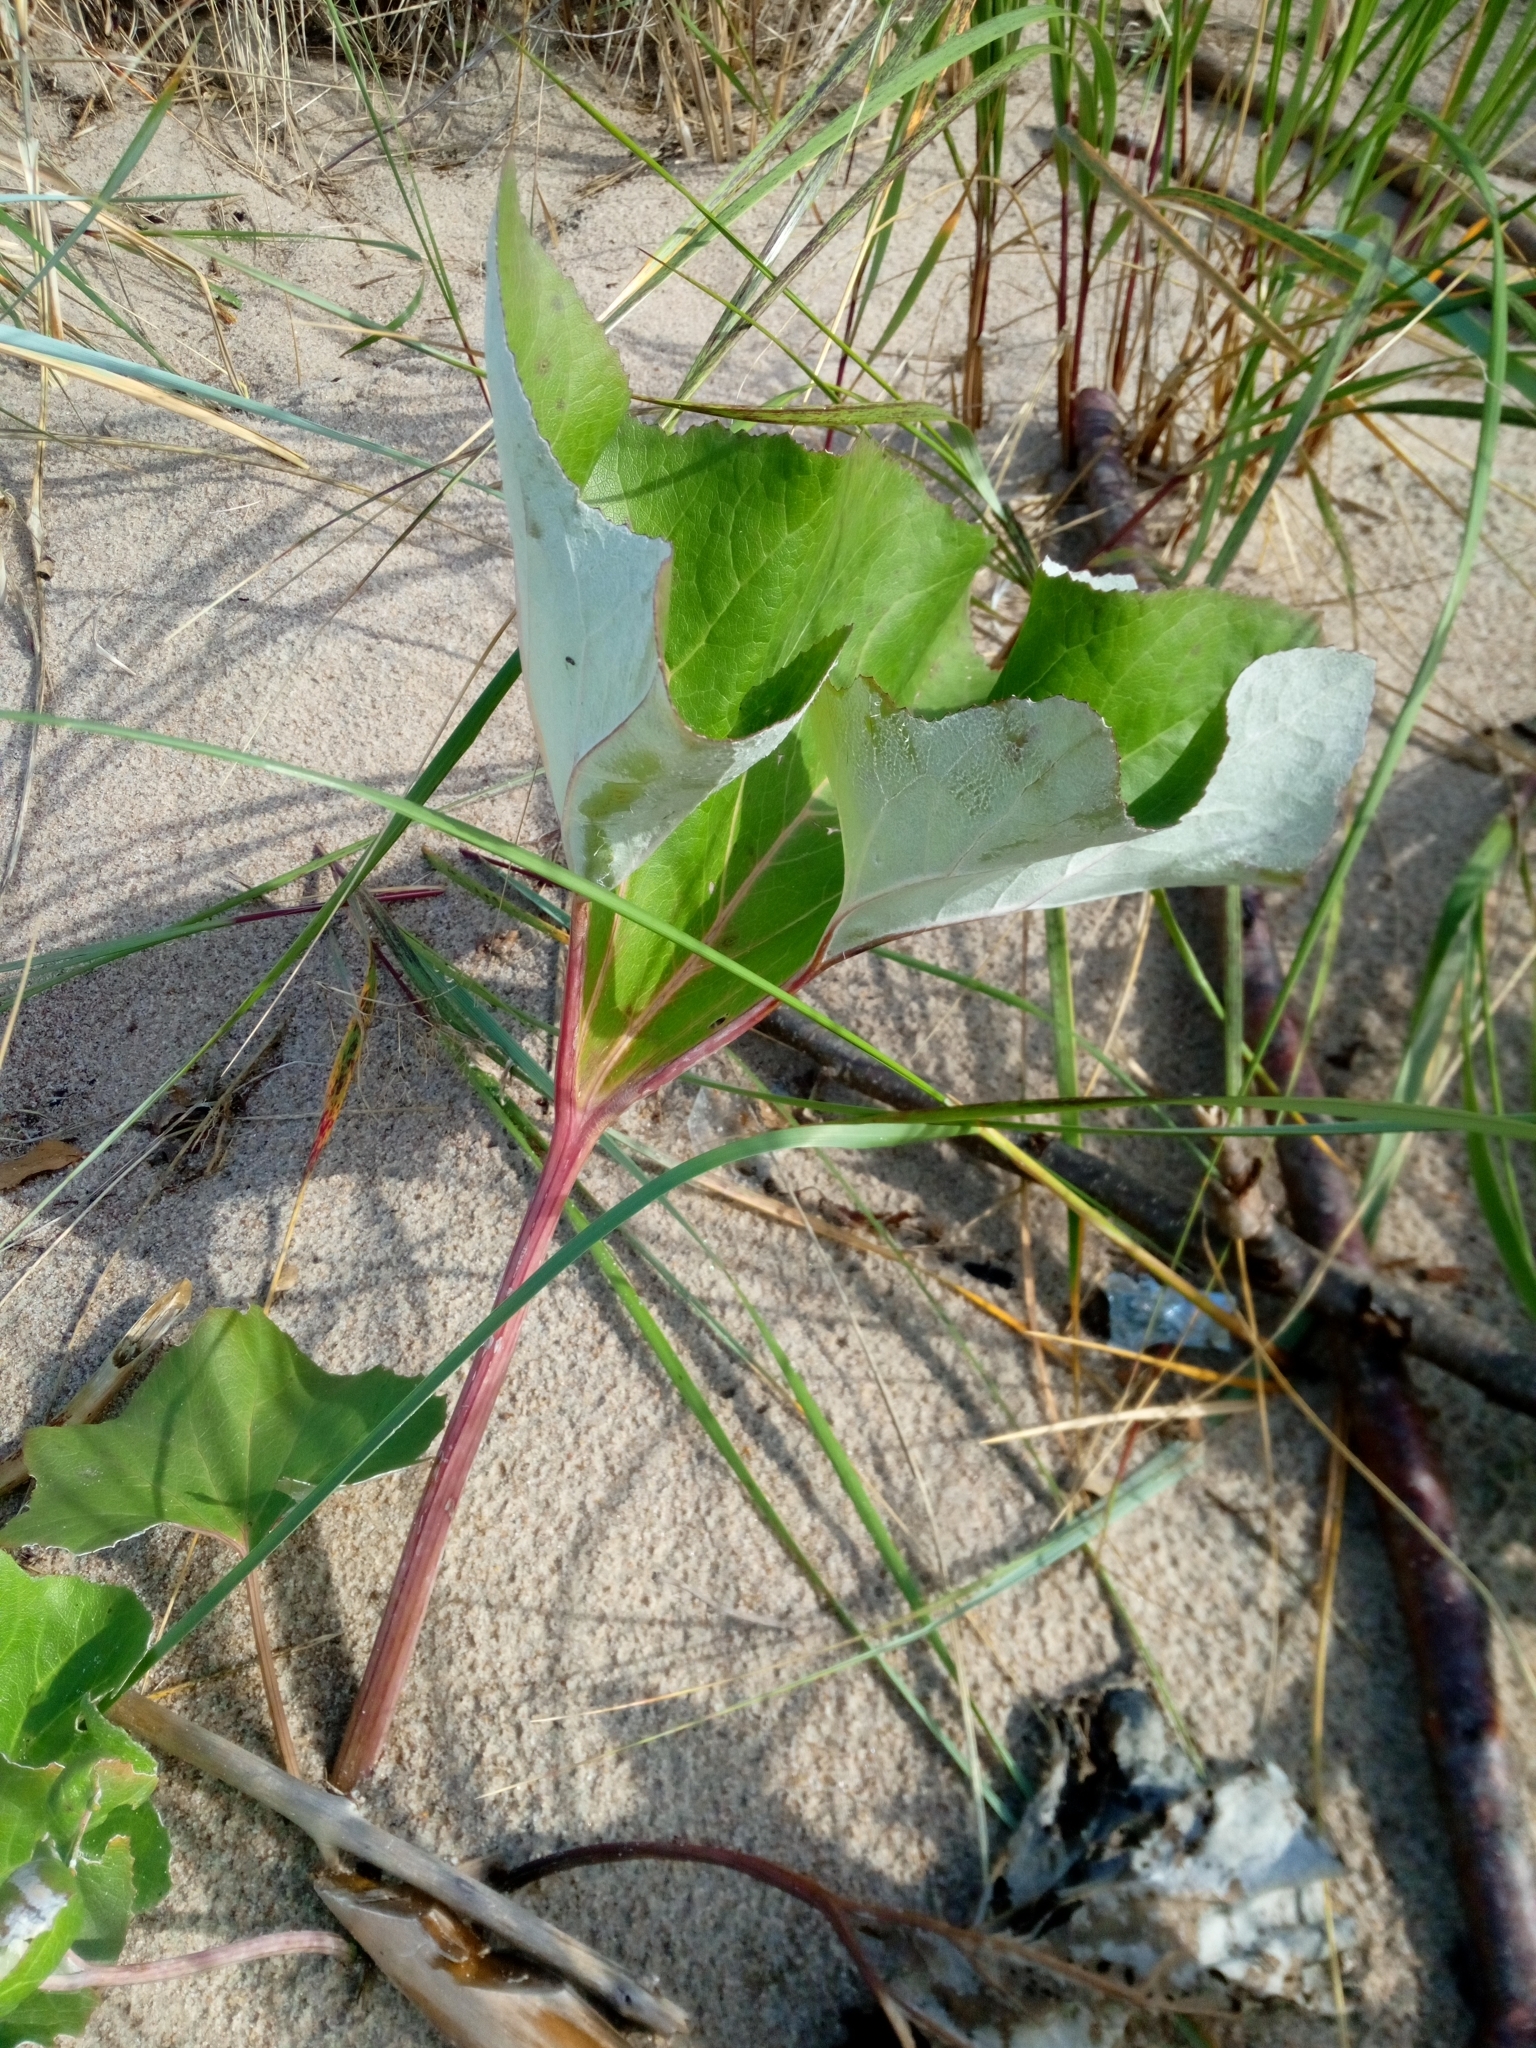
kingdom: Plantae
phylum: Tracheophyta
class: Magnoliopsida
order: Asterales
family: Asteraceae
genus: Petasites
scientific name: Petasites spurius
